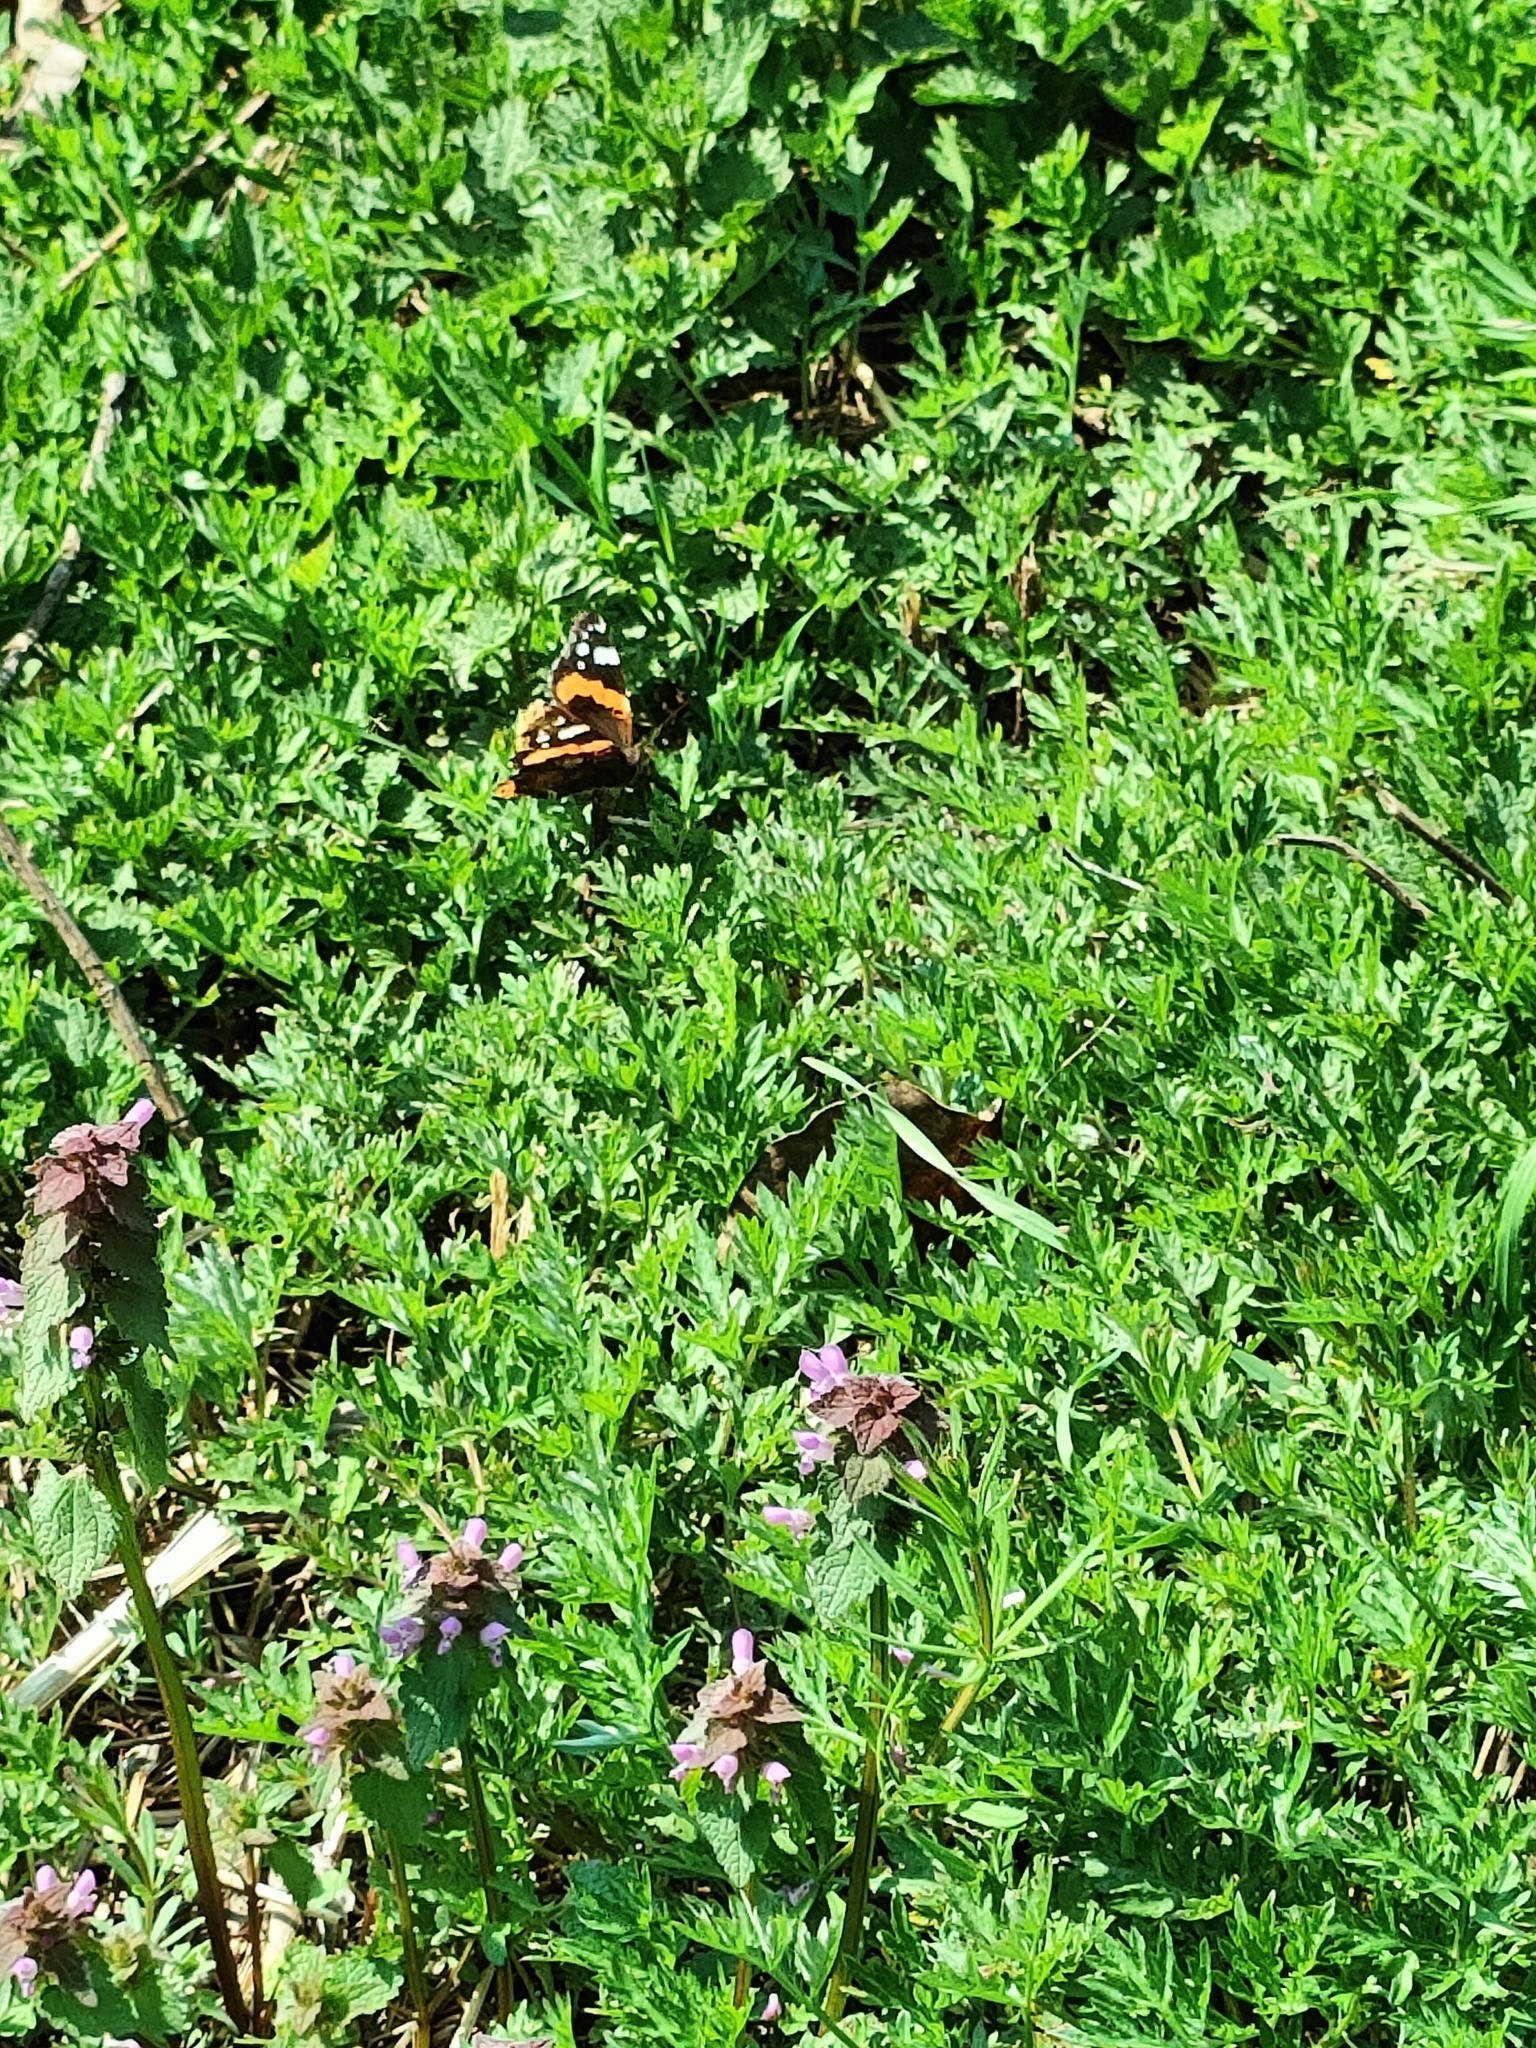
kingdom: Animalia
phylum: Arthropoda
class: Insecta
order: Lepidoptera
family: Nymphalidae
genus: Vanessa
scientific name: Vanessa atalanta
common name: Red admiral
